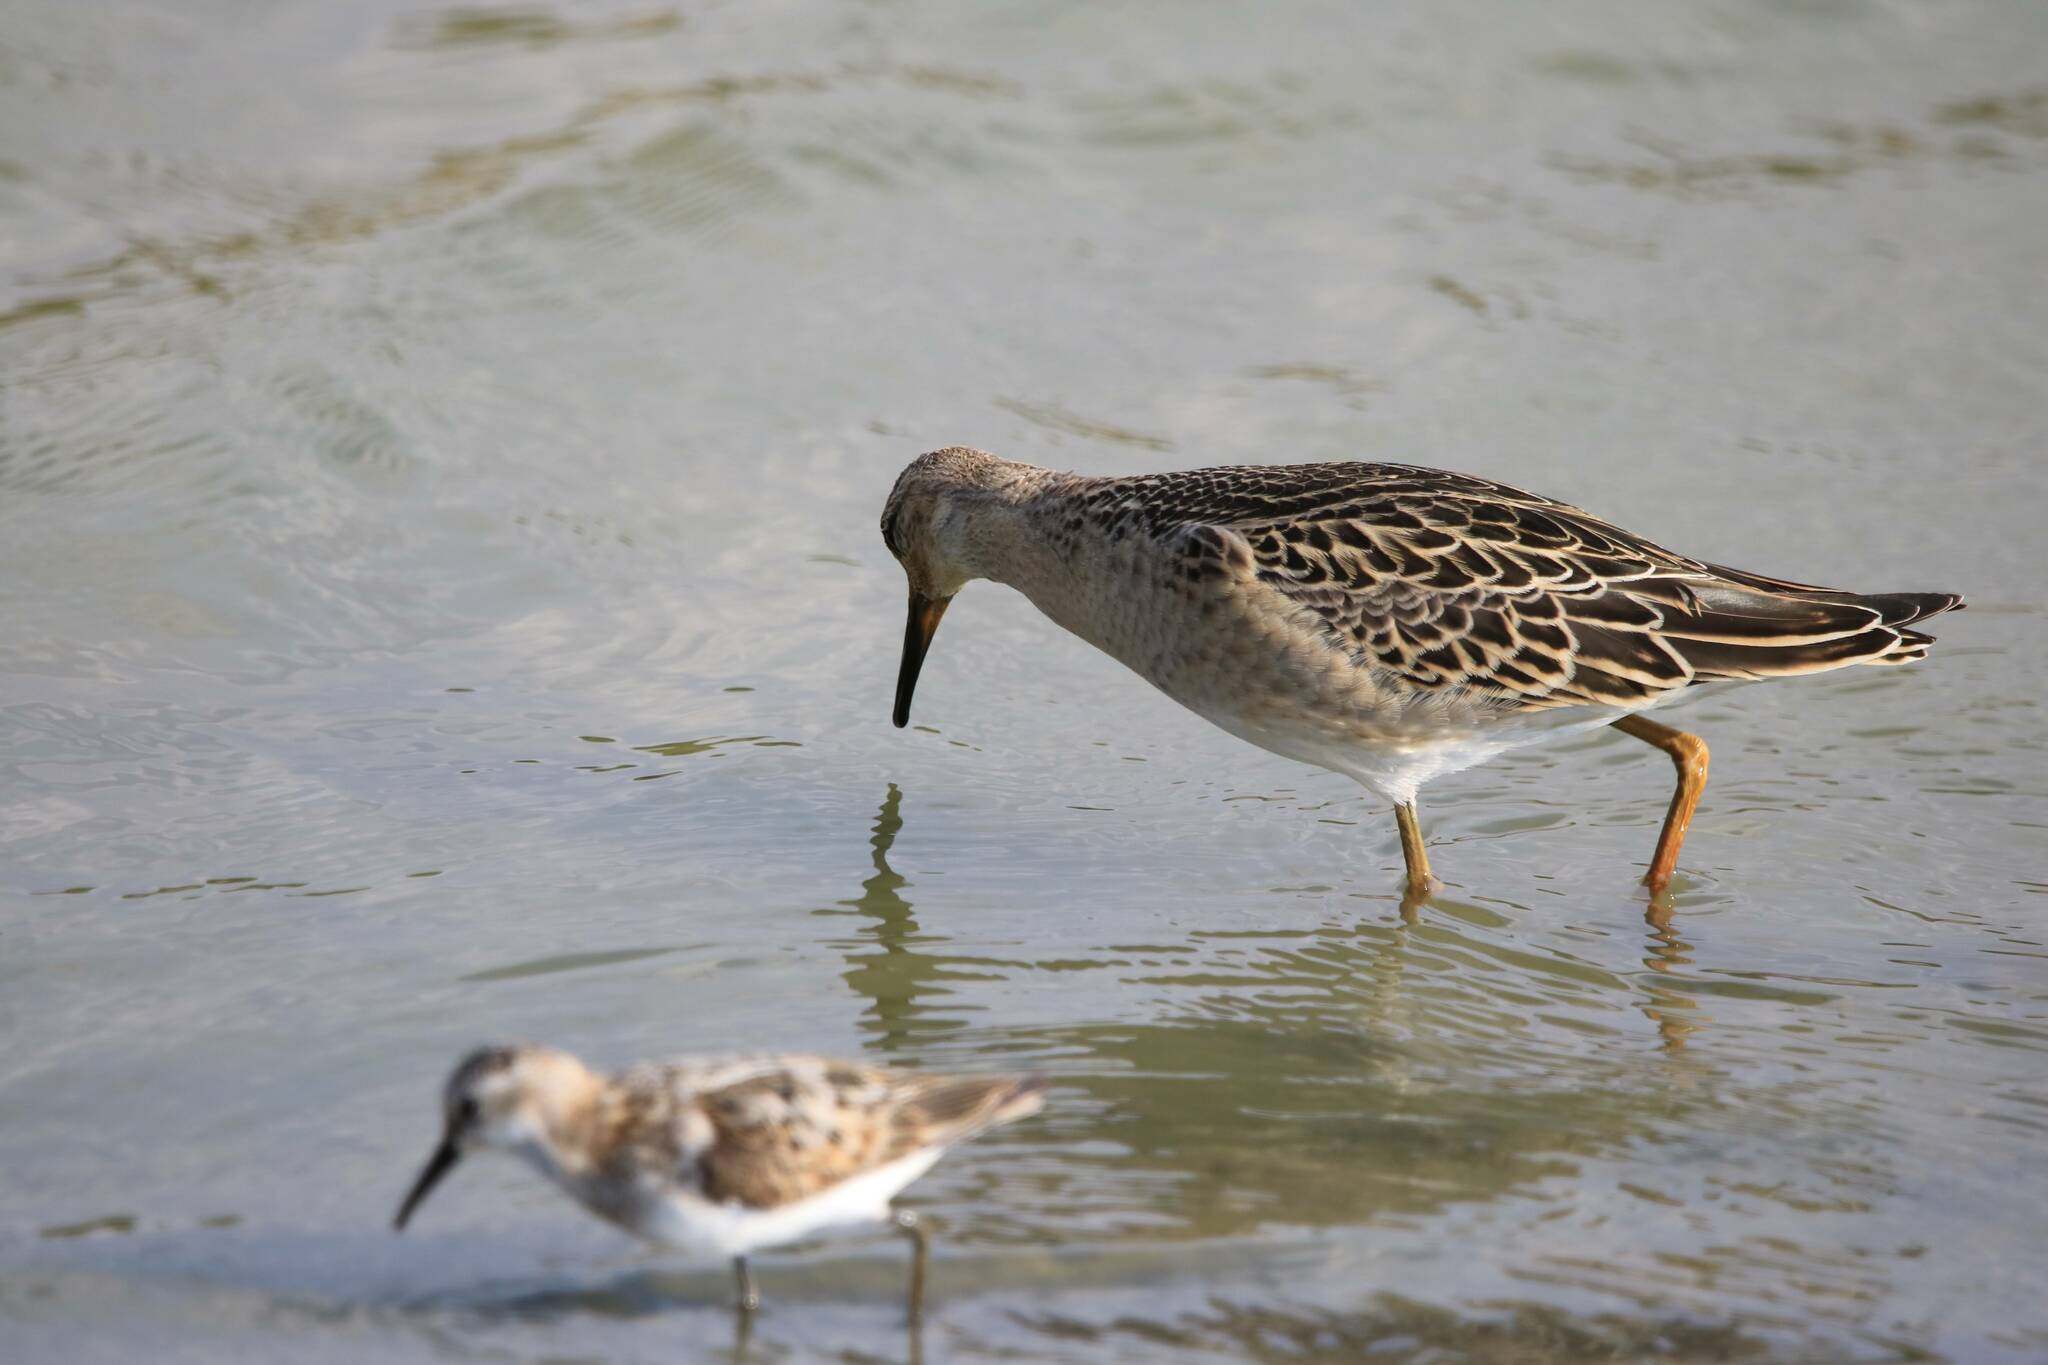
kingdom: Animalia
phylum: Chordata
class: Aves
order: Charadriiformes
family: Scolopacidae
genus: Calidris
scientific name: Calidris pugnax
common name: Ruff
